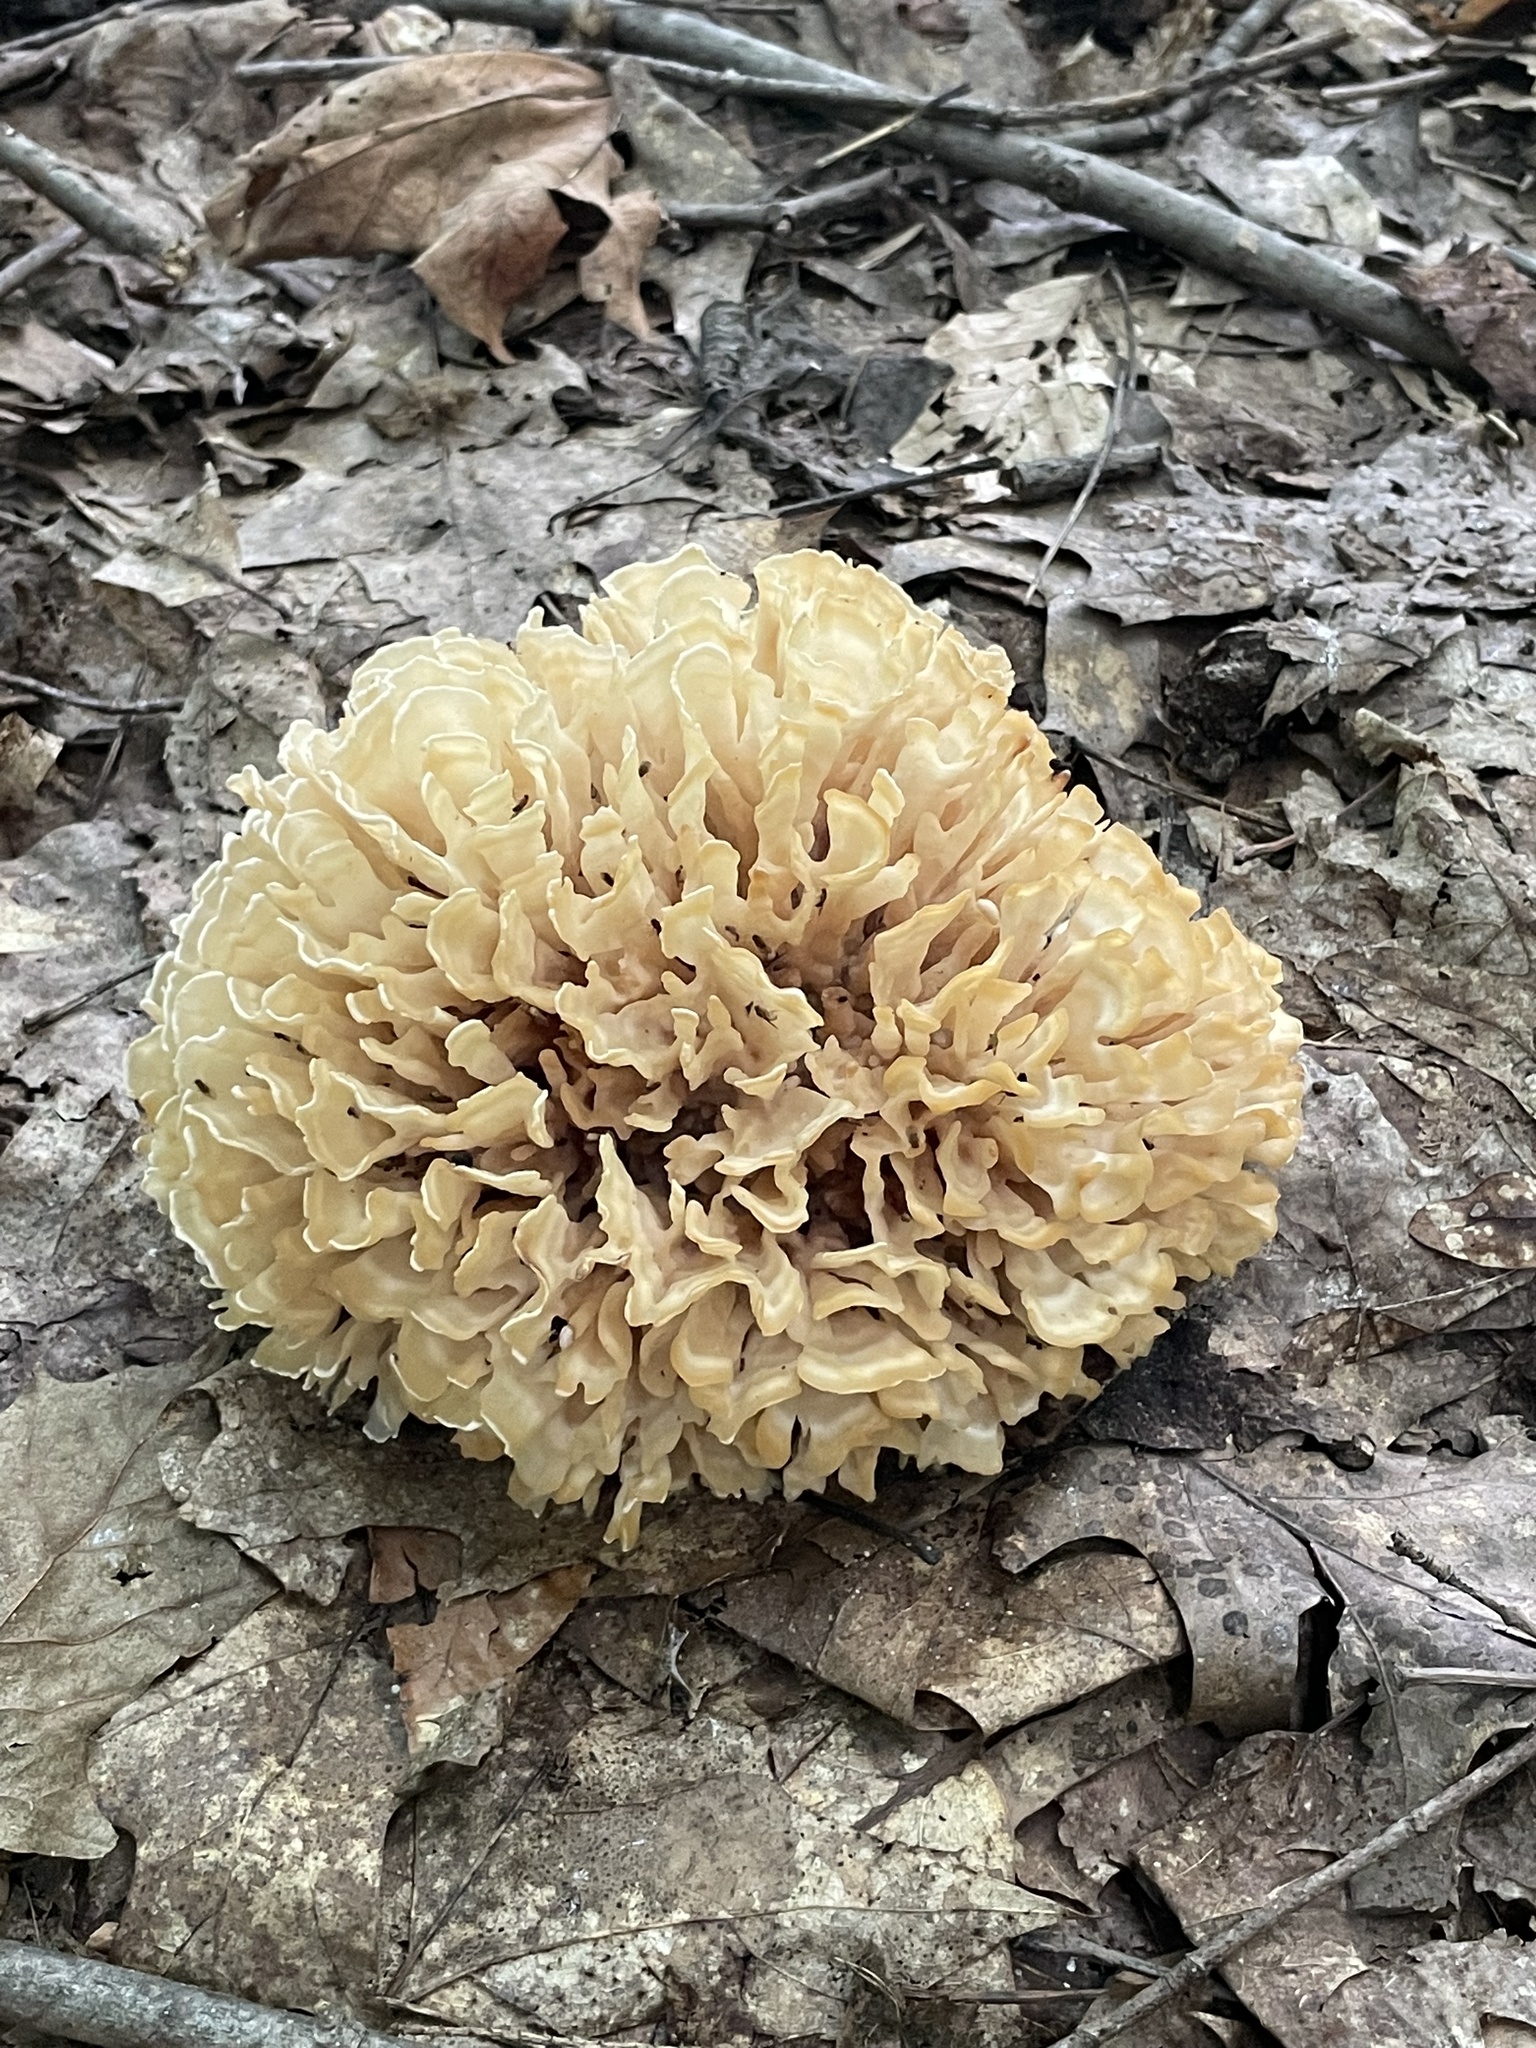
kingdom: Fungi
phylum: Basidiomycota
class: Agaricomycetes
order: Polyporales
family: Sparassidaceae
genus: Sparassis
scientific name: Sparassis spathulata
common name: Eastern cauliflower mushroom
